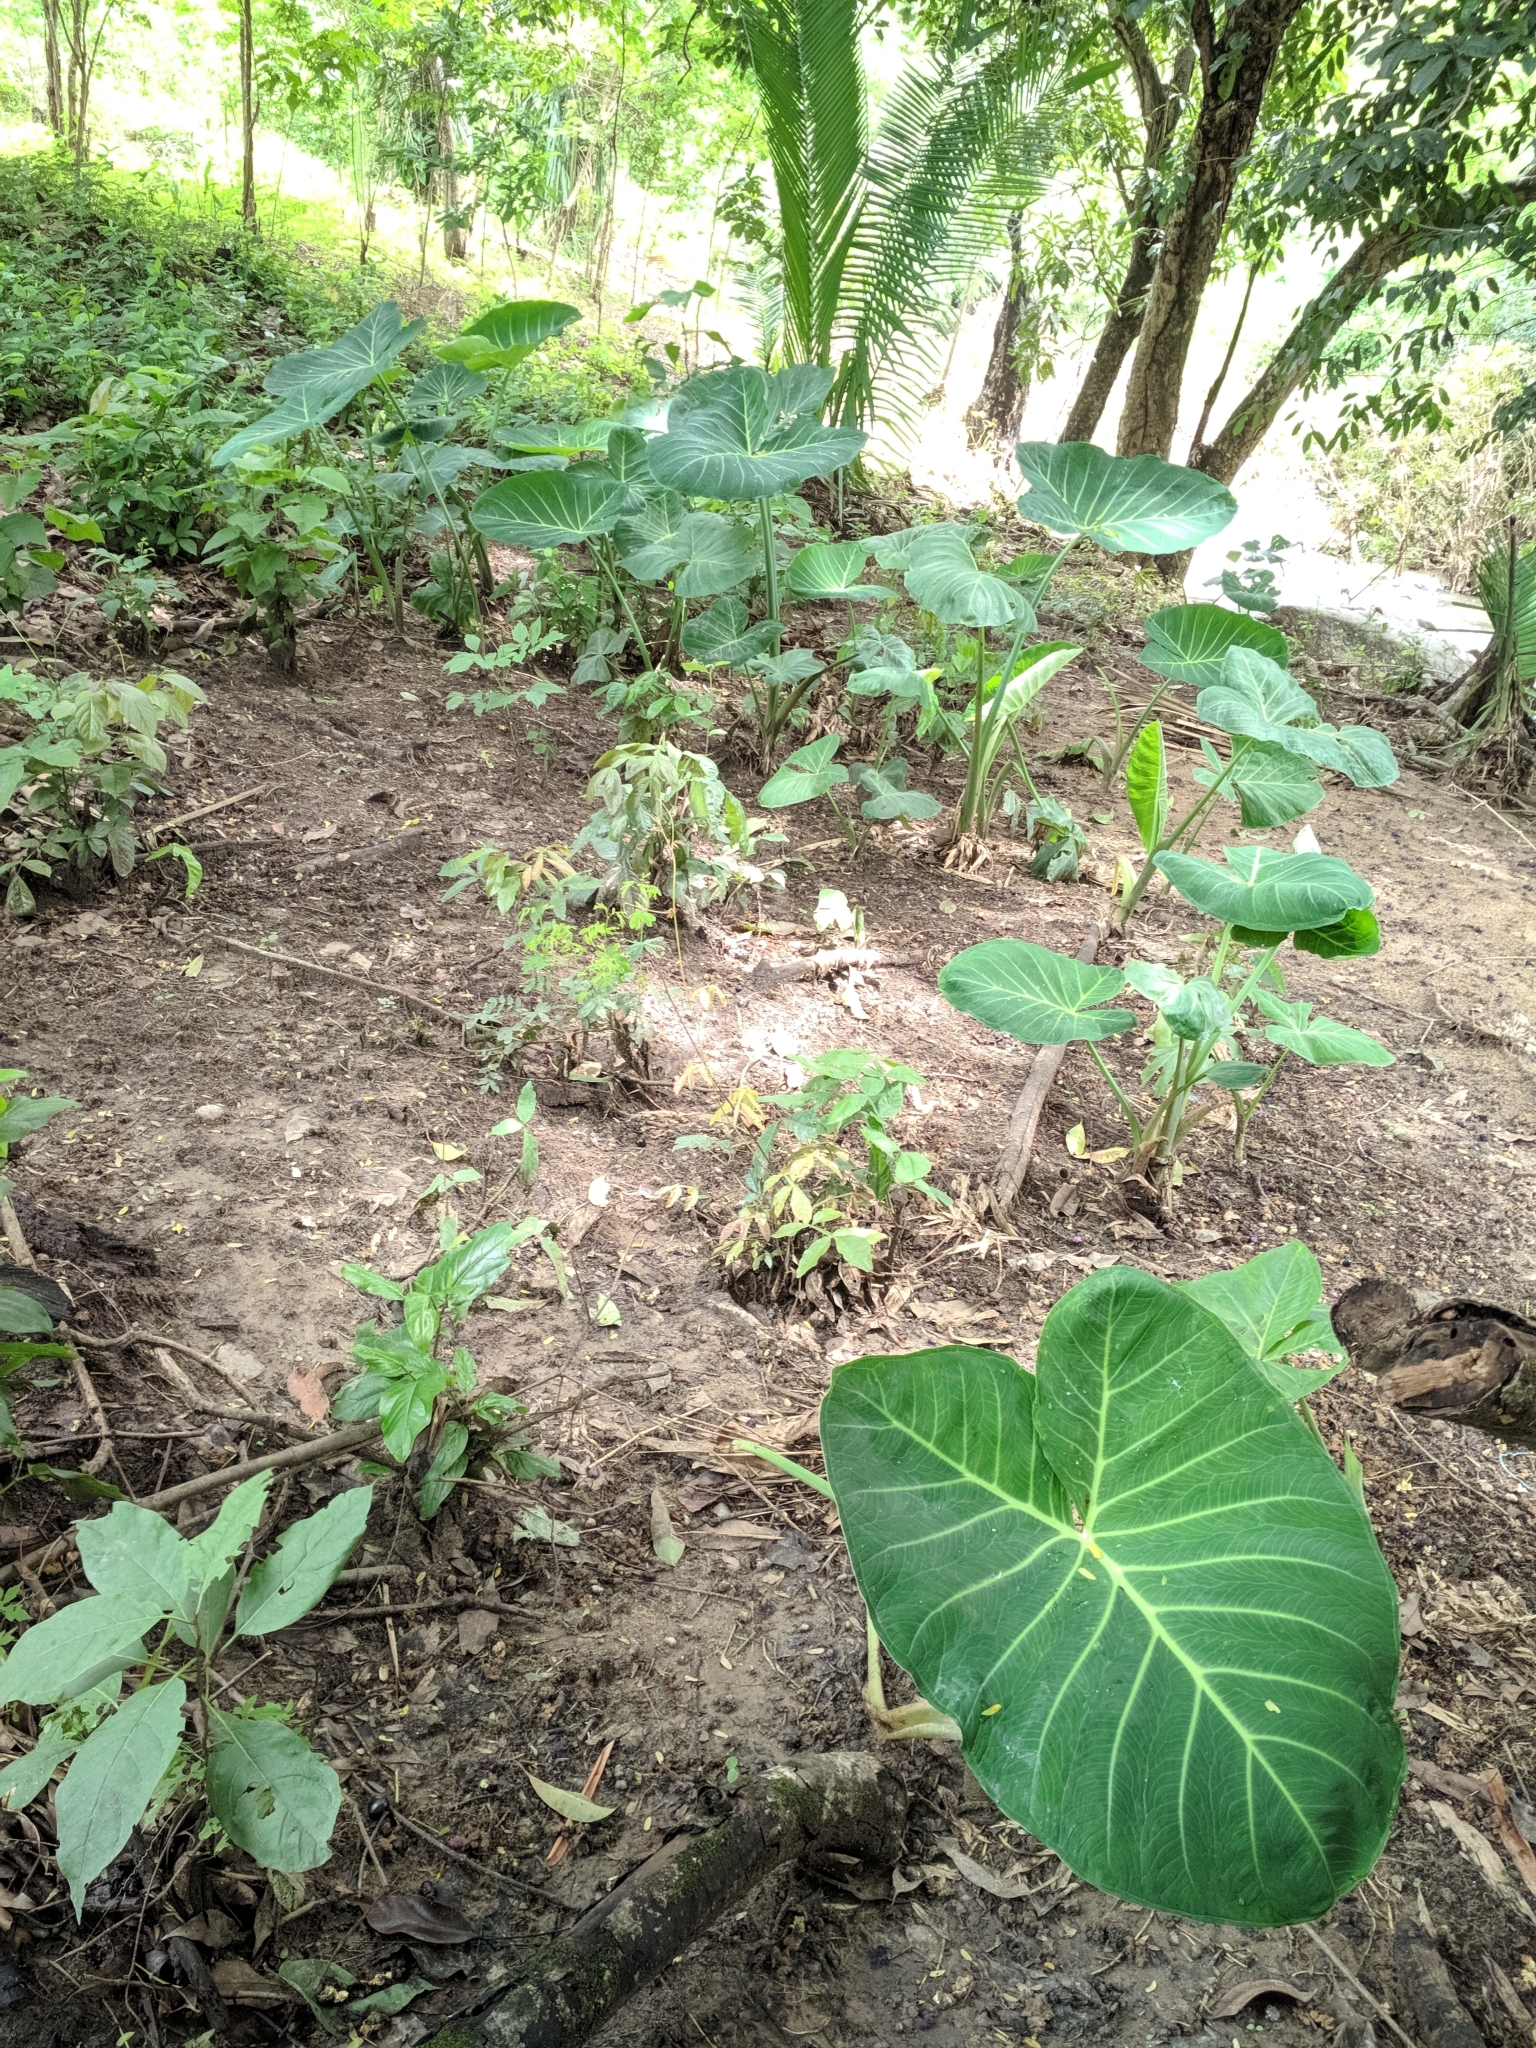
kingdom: Plantae
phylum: Tracheophyta
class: Liliopsida
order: Alismatales
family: Araceae
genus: Xanthosoma
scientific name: Xanthosoma taioba
